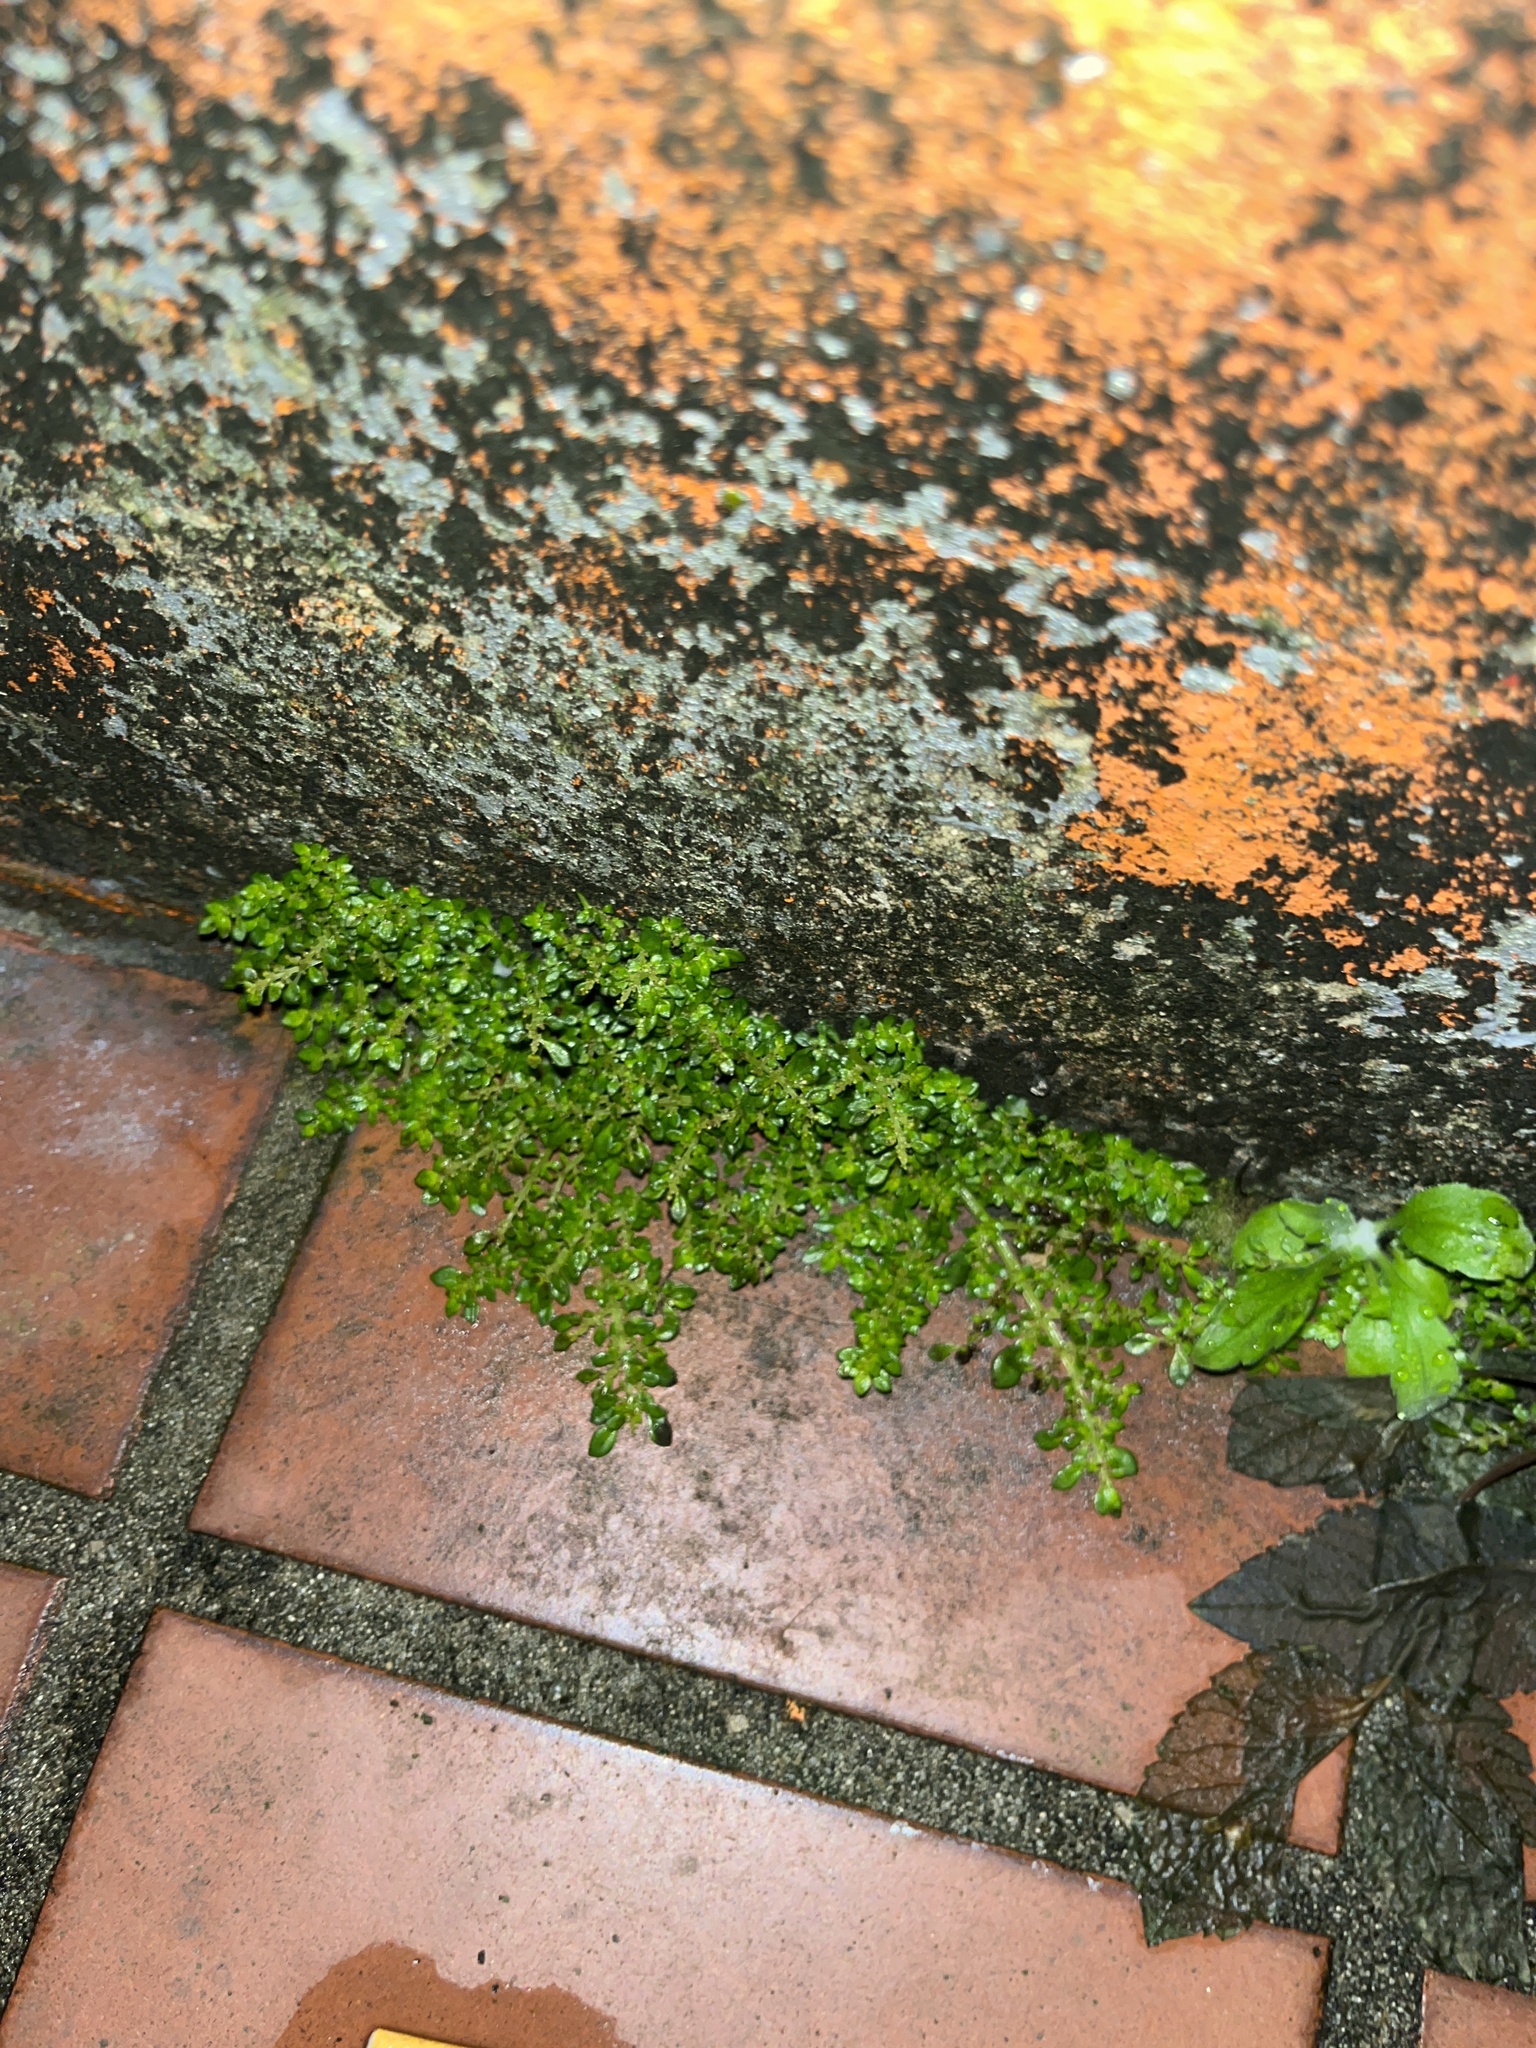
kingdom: Plantae
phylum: Tracheophyta
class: Magnoliopsida
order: Rosales
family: Urticaceae
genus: Pilea
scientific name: Pilea microphylla
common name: Artillery-plant
